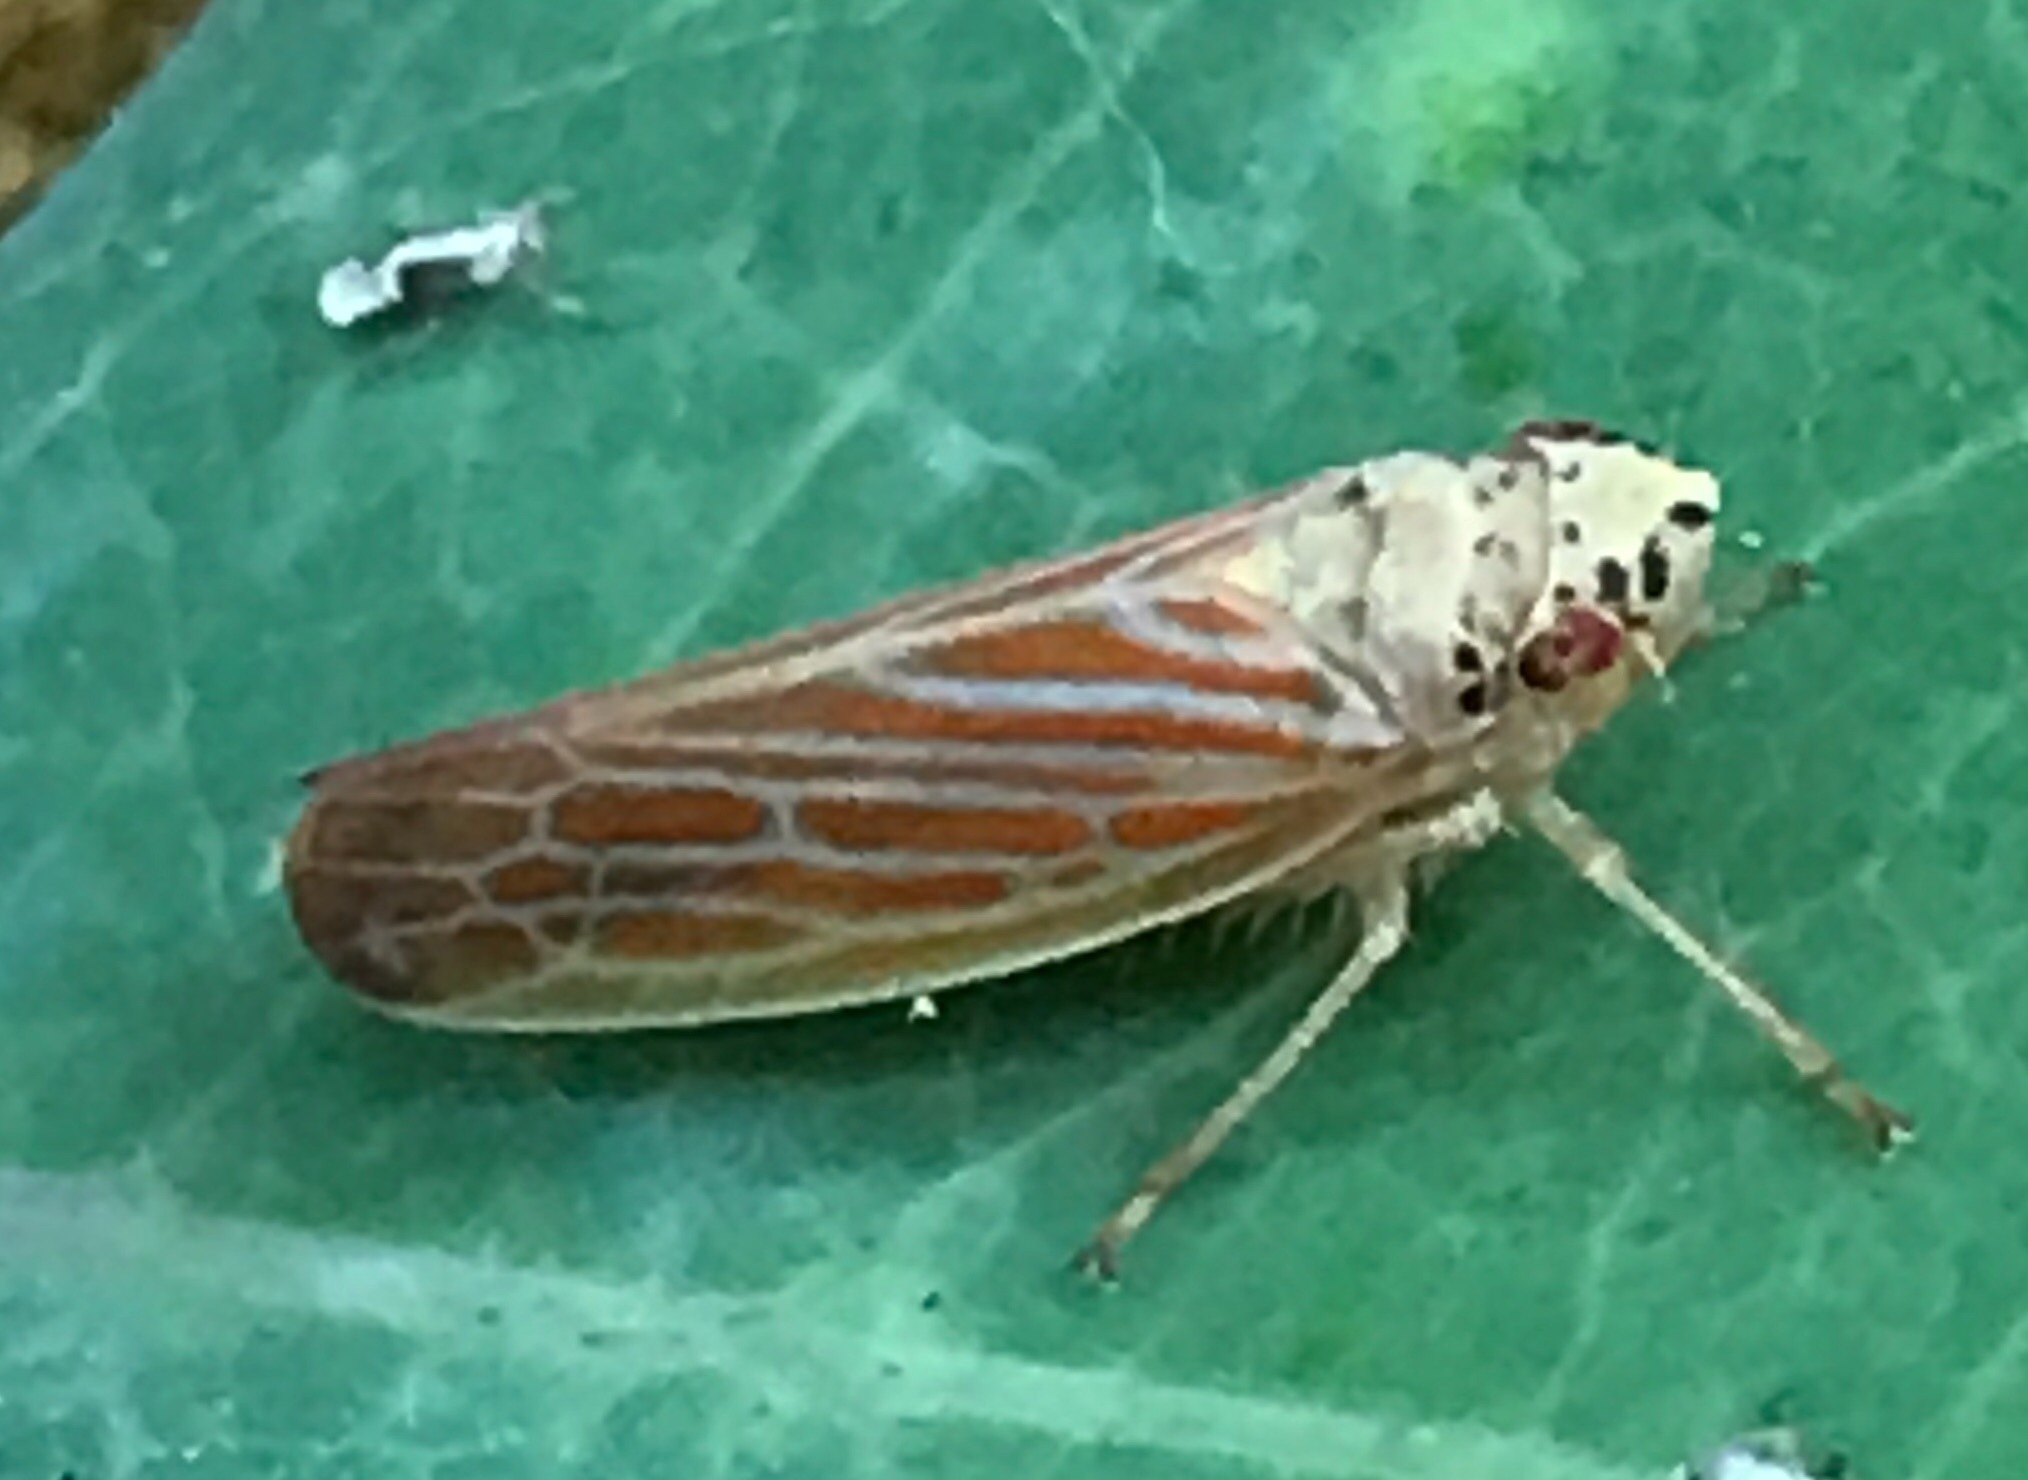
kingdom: Animalia
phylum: Arthropoda
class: Insecta
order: Hemiptera
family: Cicadellidae
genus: Pagaronia
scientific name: Pagaronia triunata
